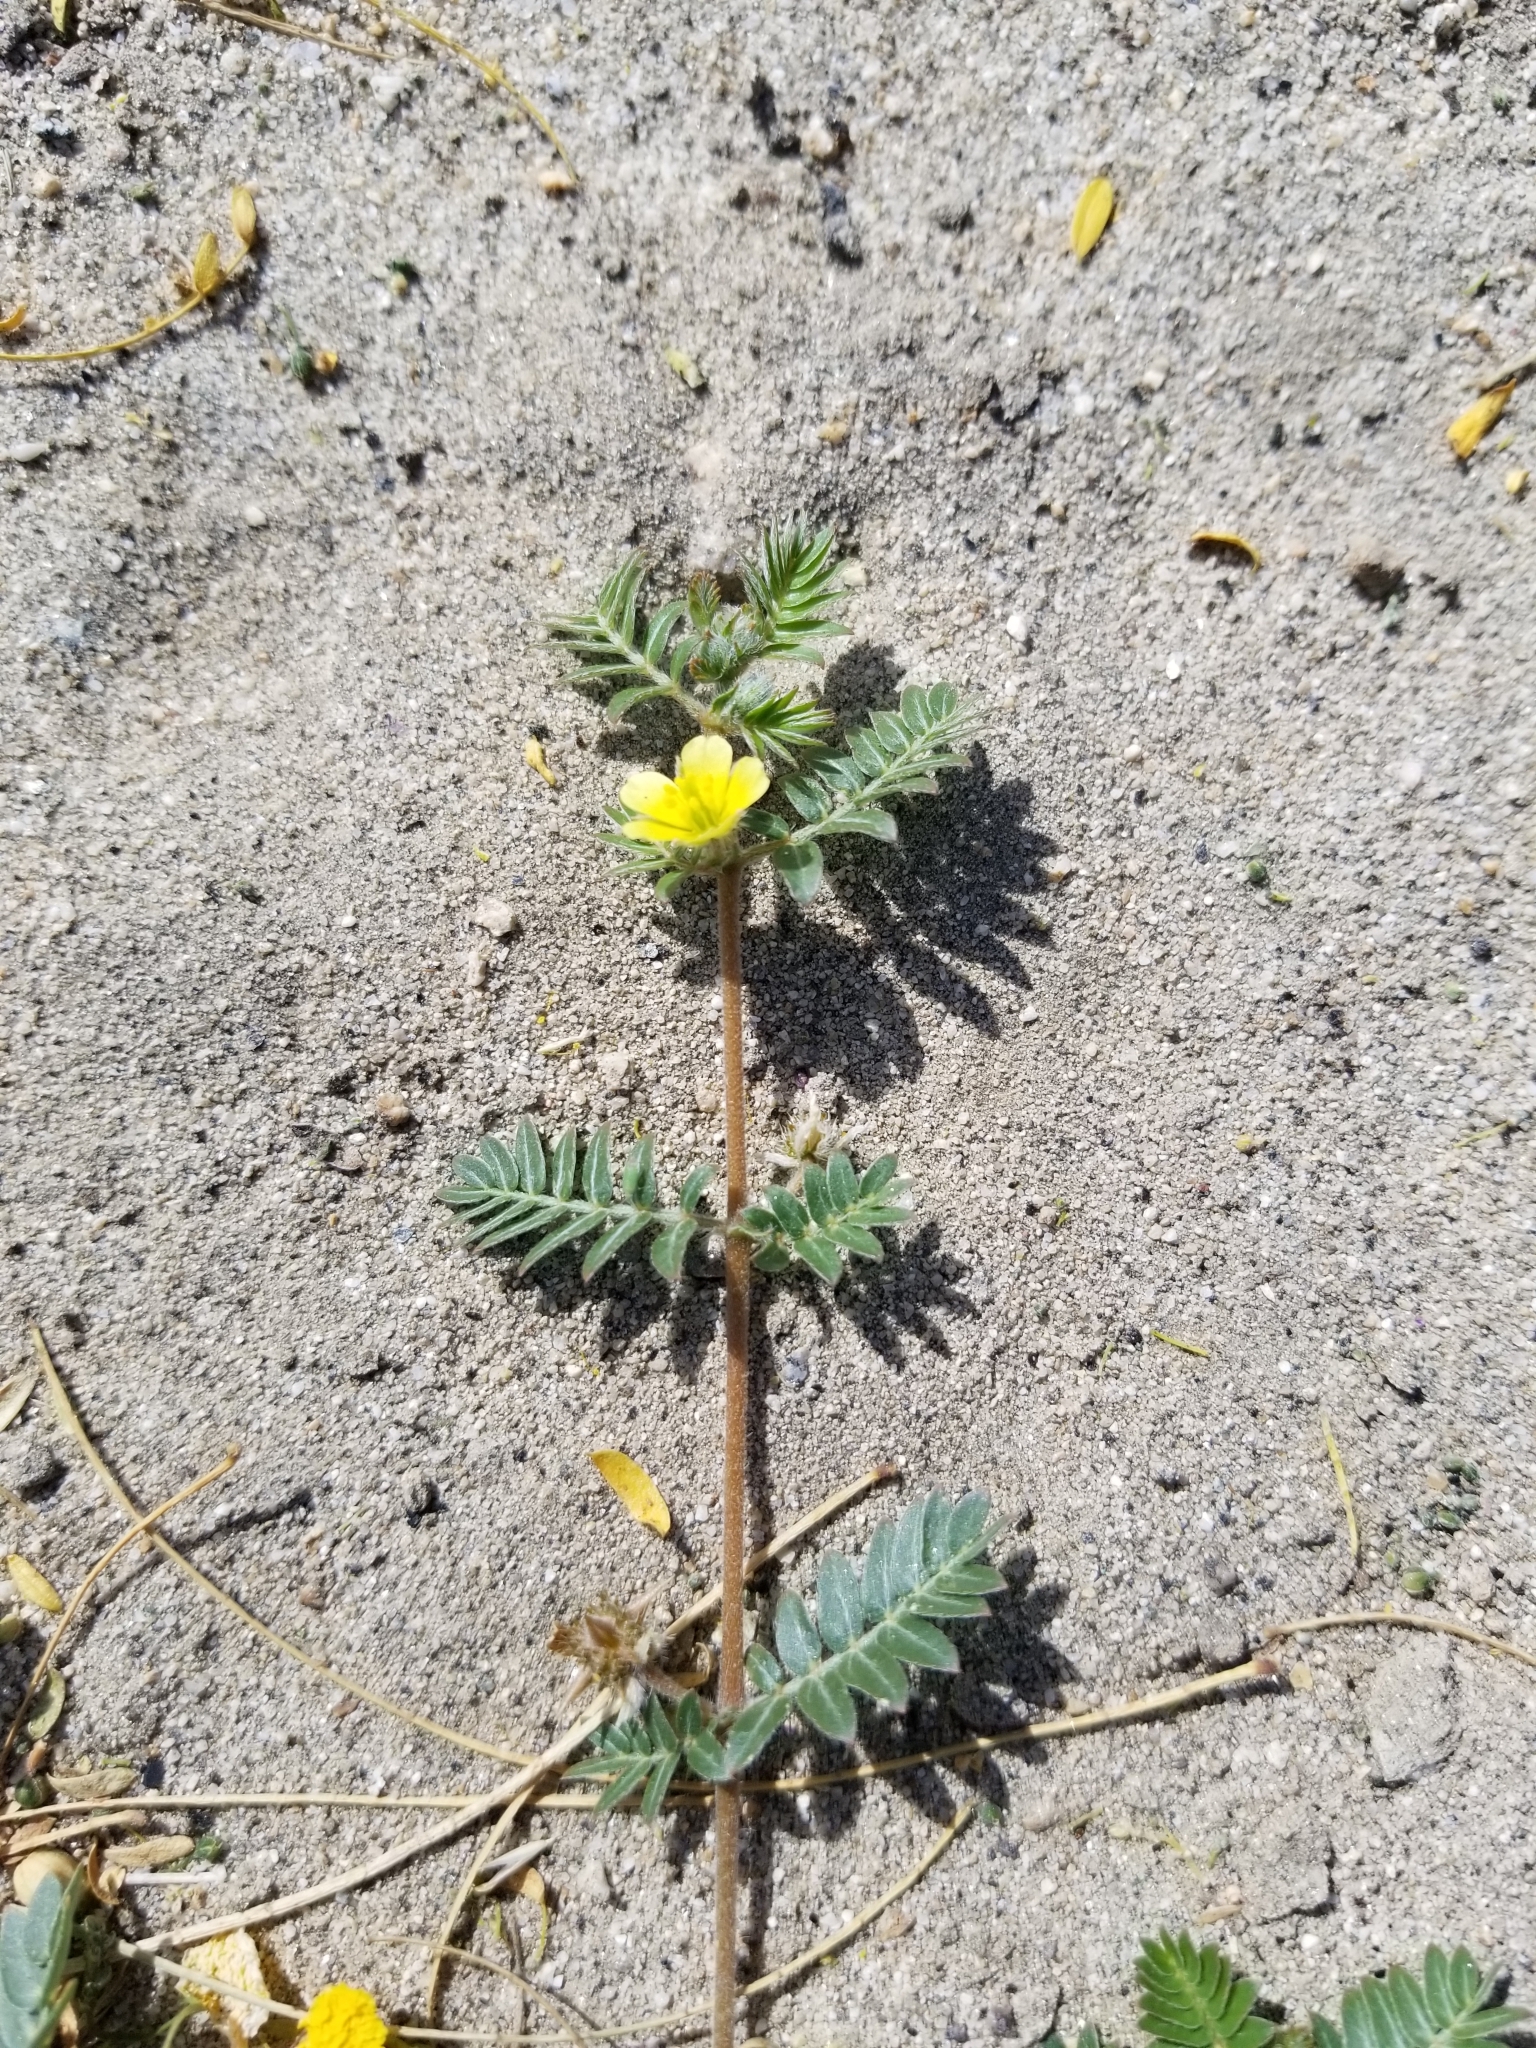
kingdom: Plantae
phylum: Tracheophyta
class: Magnoliopsida
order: Zygophyllales
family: Zygophyllaceae
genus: Tribulus
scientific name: Tribulus terrestris
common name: Puncturevine
